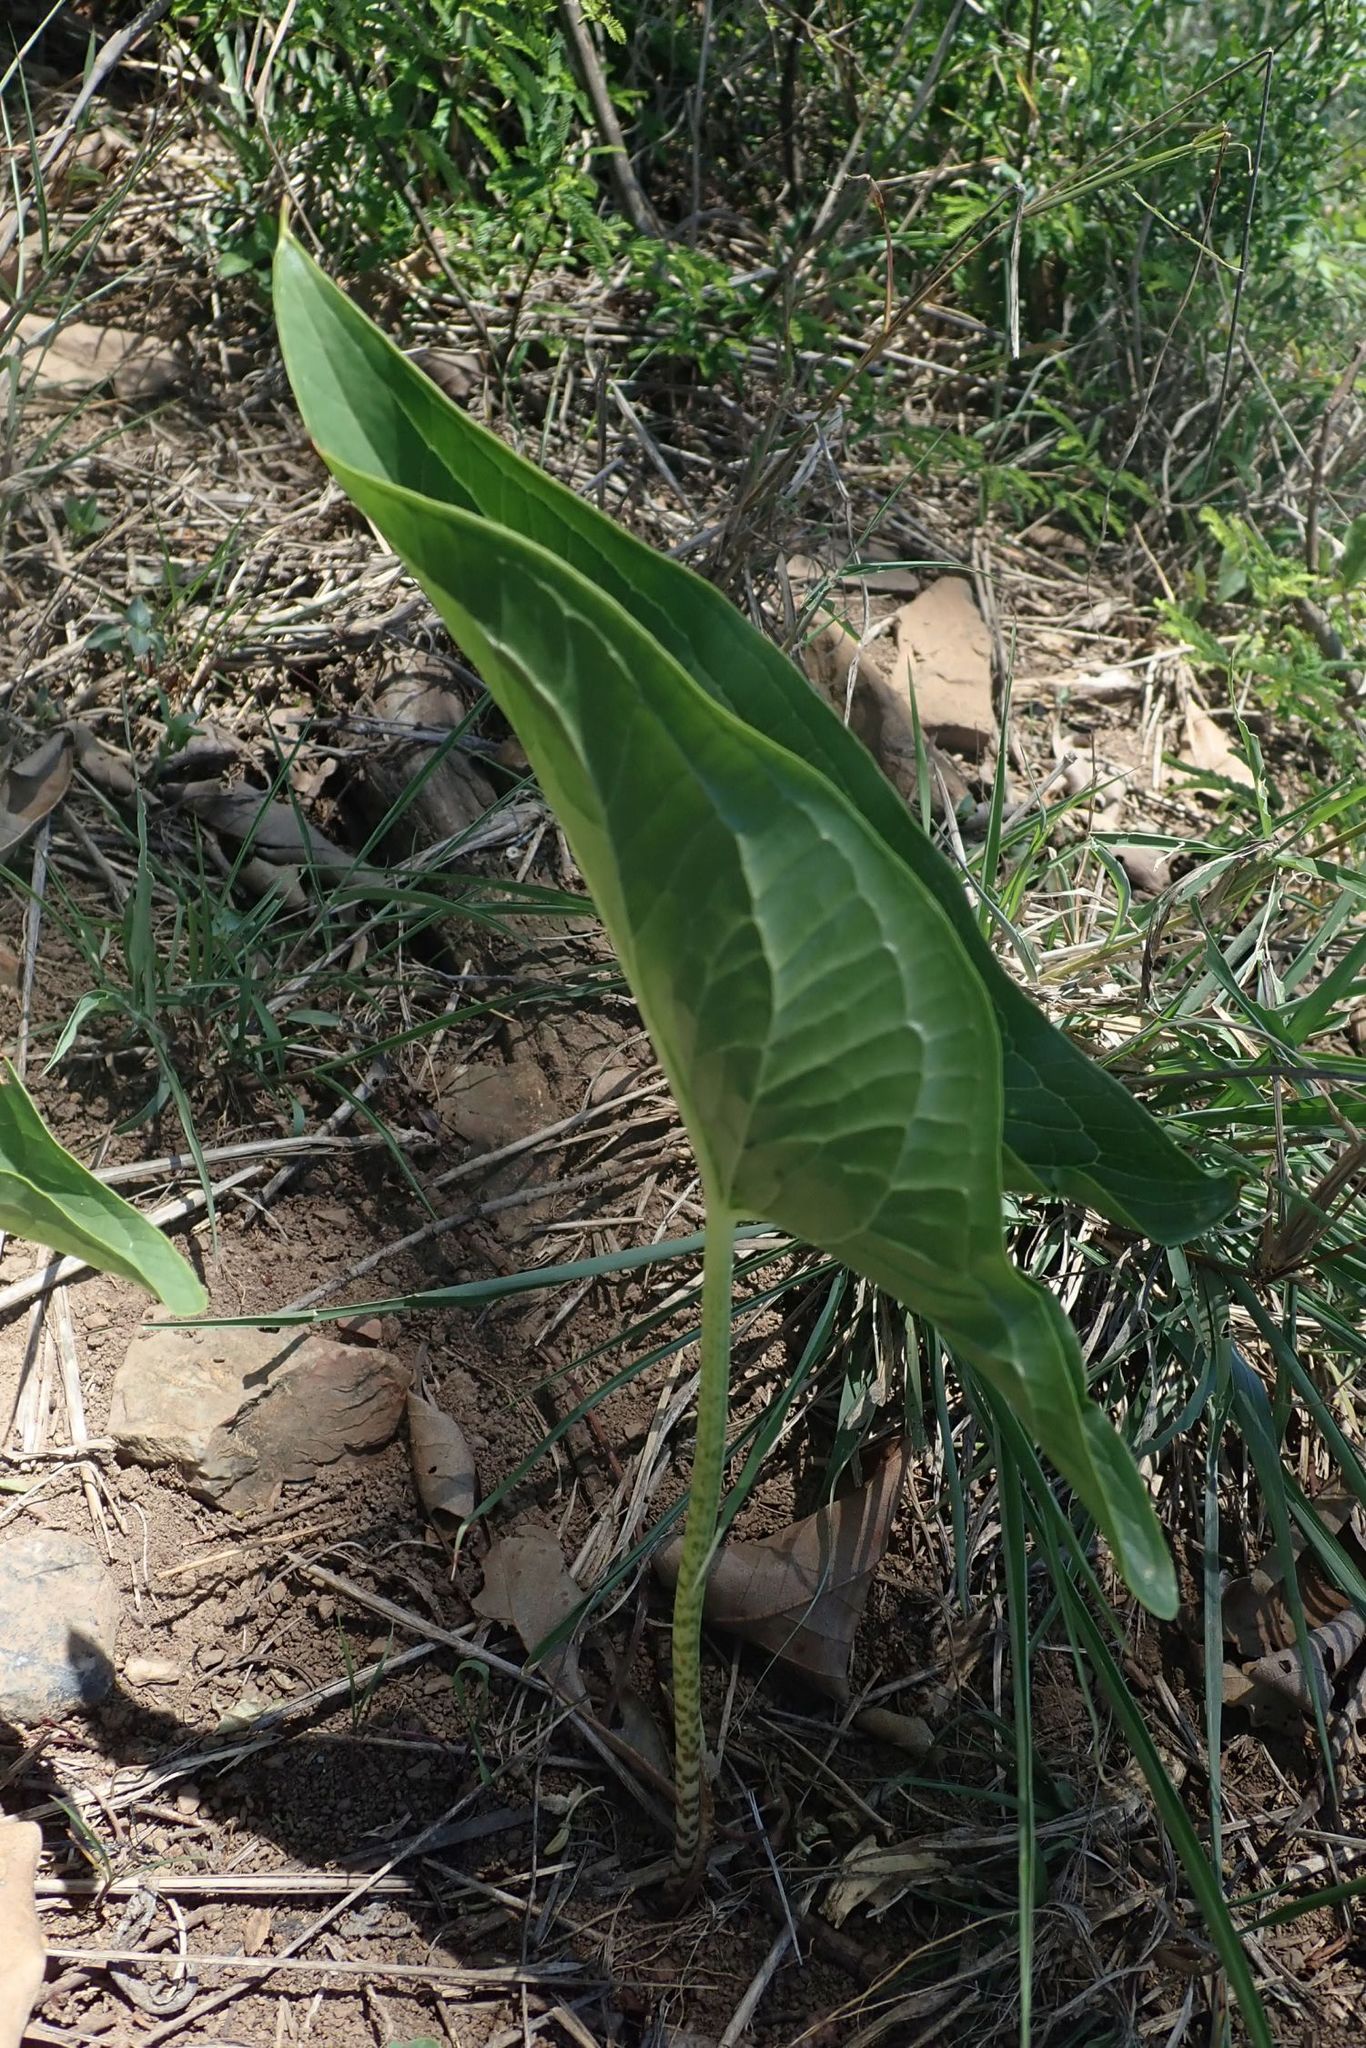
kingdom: Plantae
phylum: Tracheophyta
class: Liliopsida
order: Alismatales
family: Araceae
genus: Stylochaeton
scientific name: Stylochaeton natalensis
